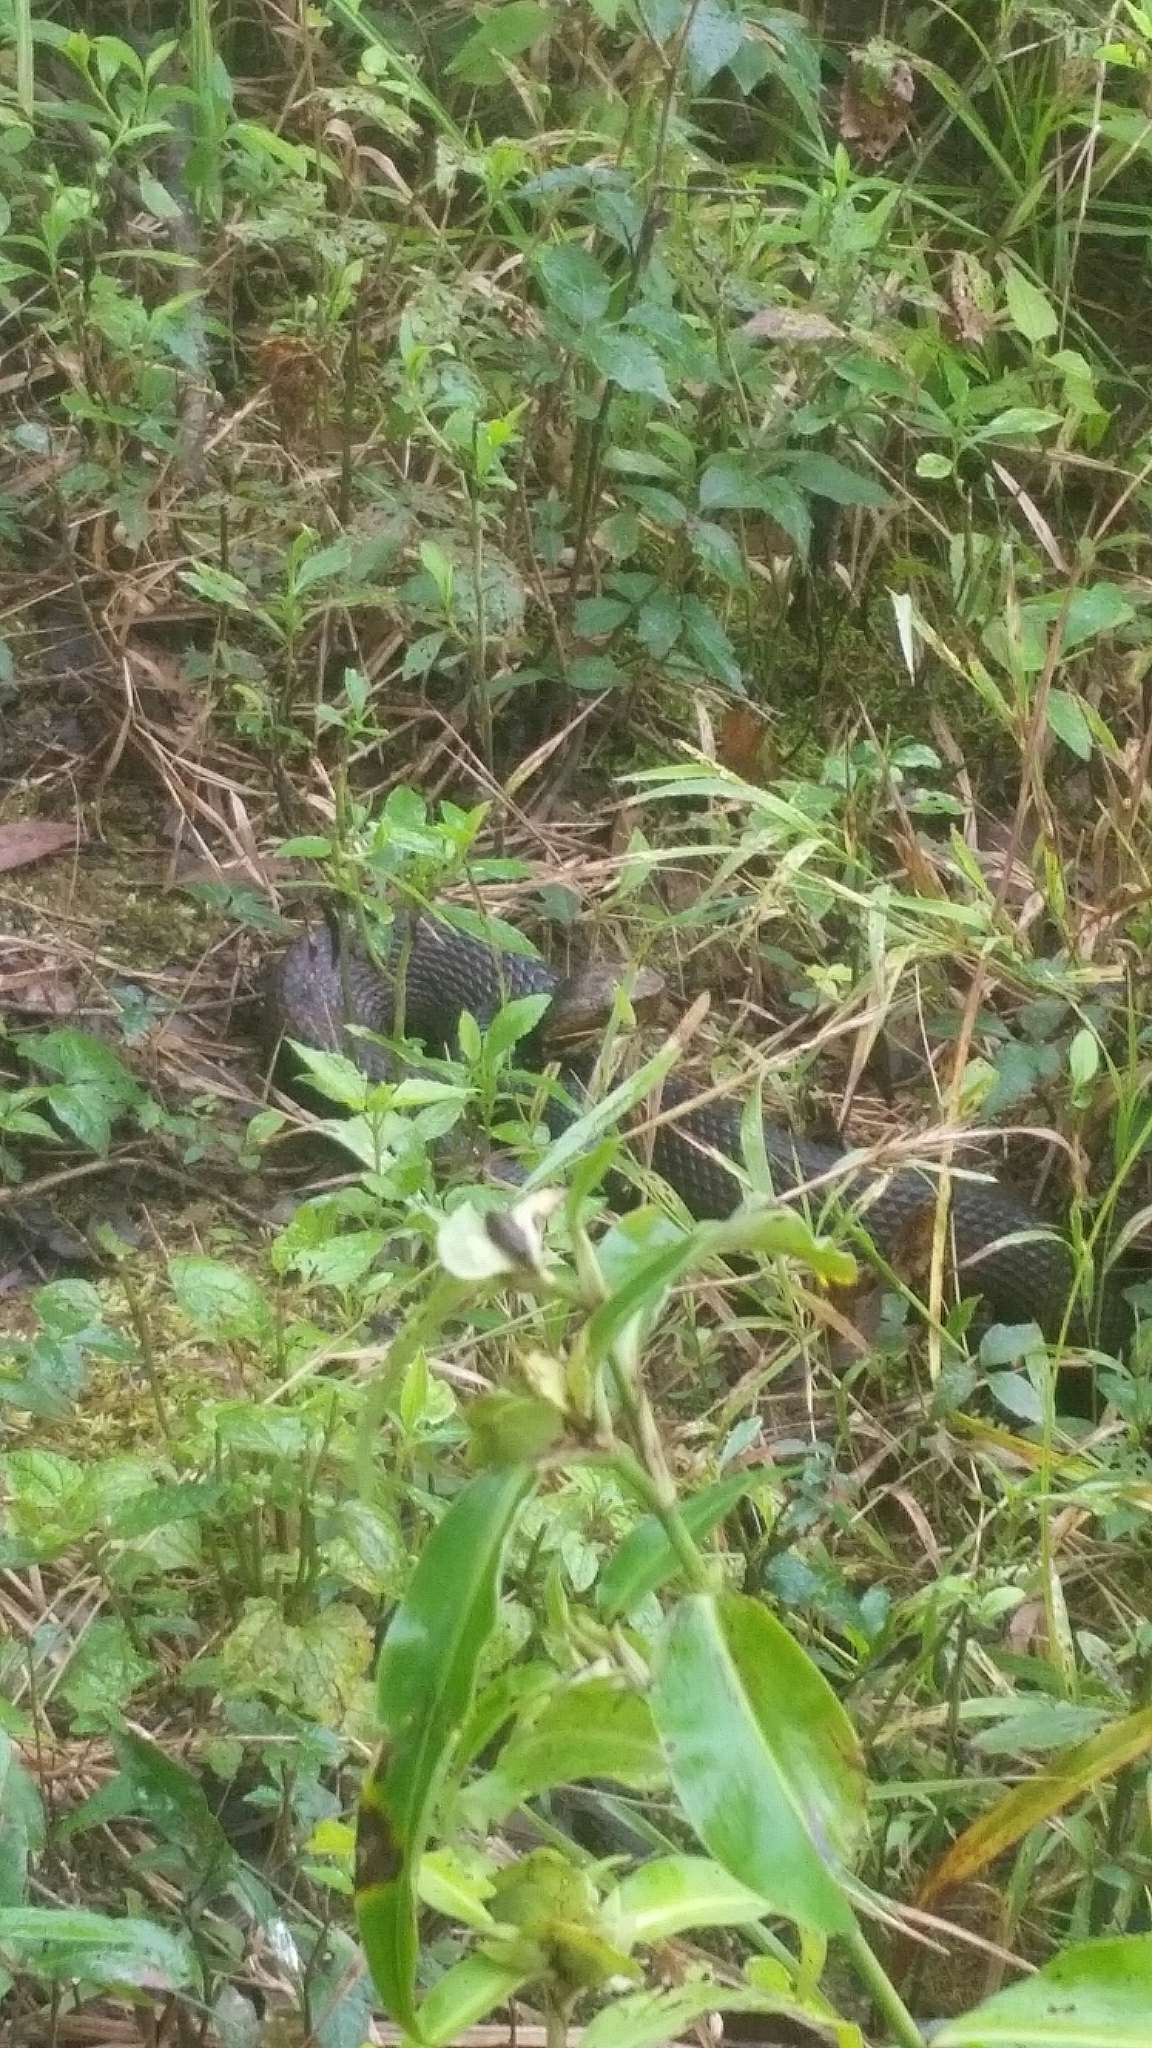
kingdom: Animalia
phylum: Chordata
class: Squamata
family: Viperidae
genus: Agkistrodon
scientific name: Agkistrodon piscivorus
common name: Cottonmouth
